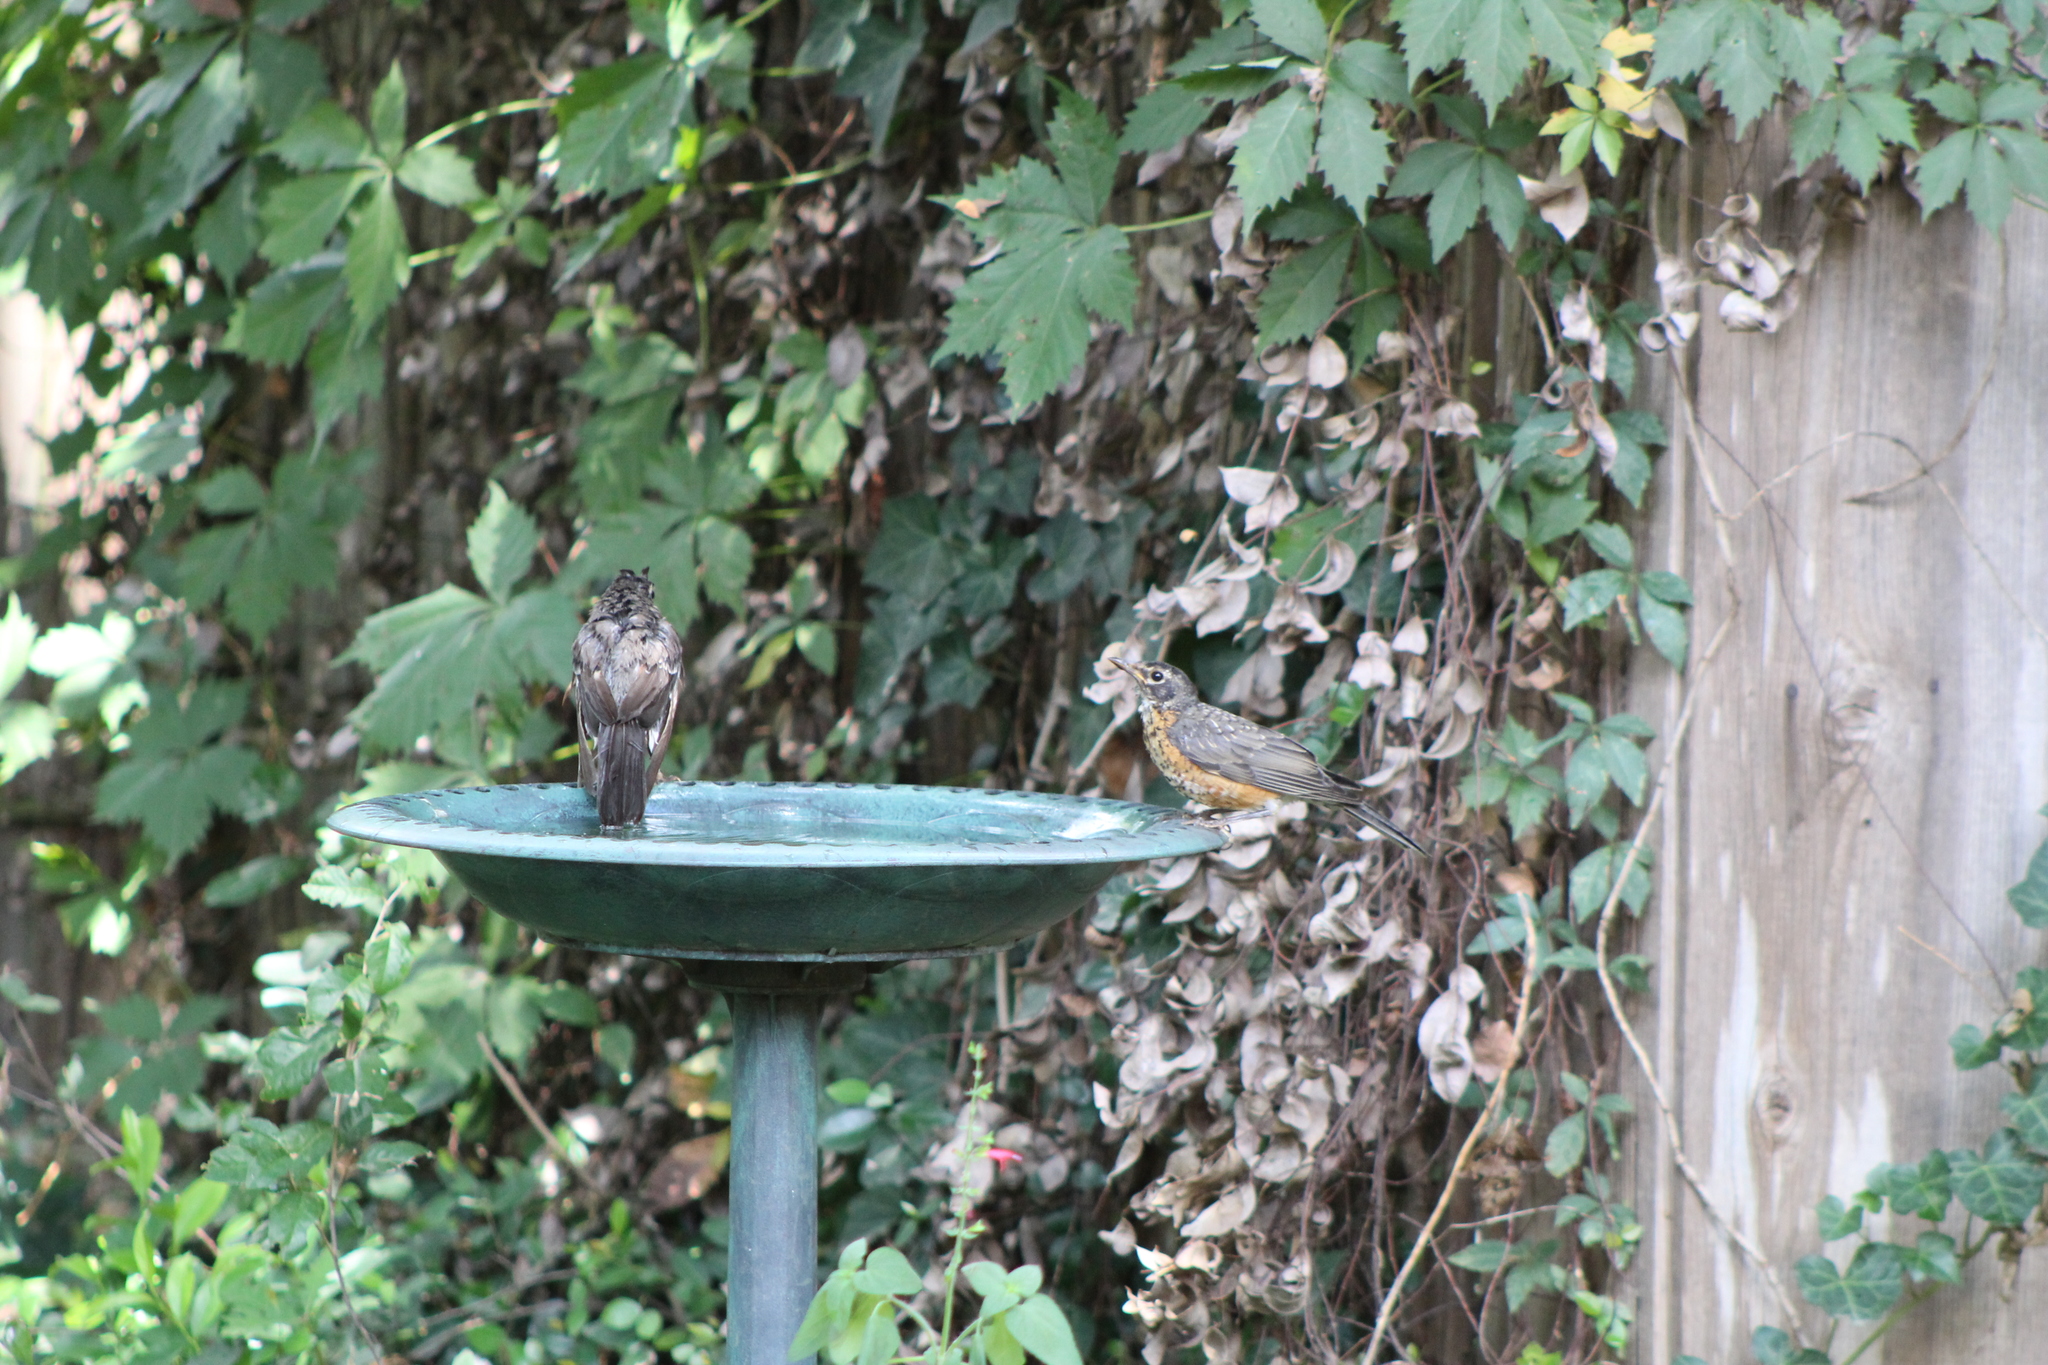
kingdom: Animalia
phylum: Chordata
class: Aves
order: Passeriformes
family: Turdidae
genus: Turdus
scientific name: Turdus migratorius
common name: American robin
